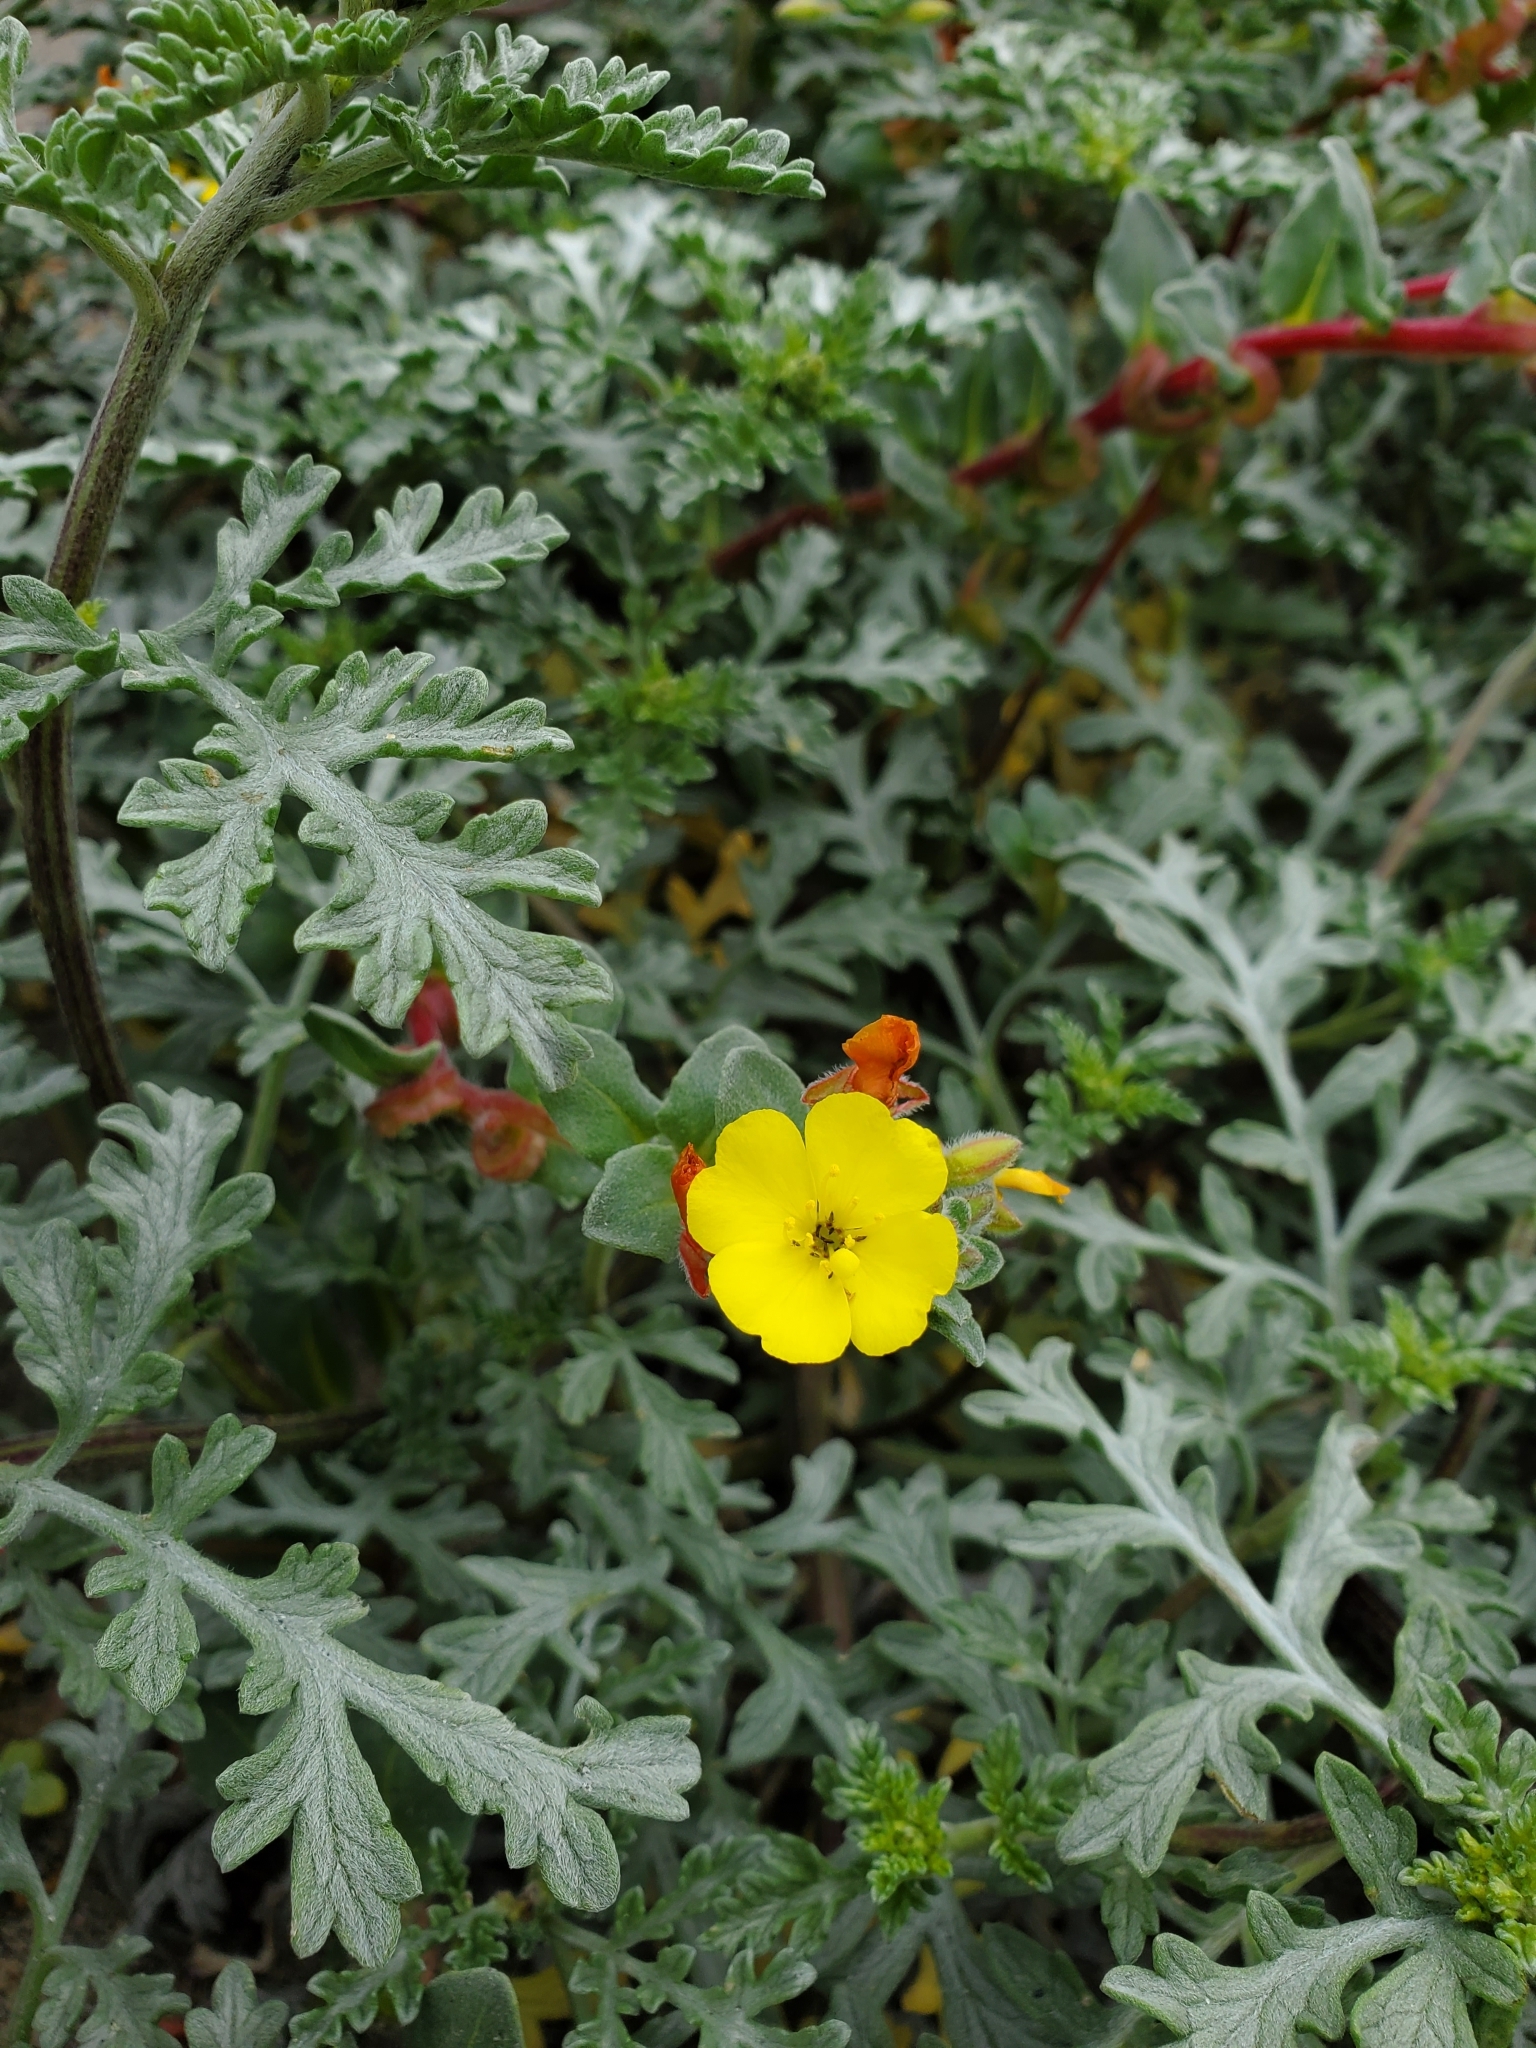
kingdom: Plantae
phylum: Tracheophyta
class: Magnoliopsida
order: Myrtales
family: Onagraceae
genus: Camissoniopsis
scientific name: Camissoniopsis cheiranthifolia
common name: Beach suncup
